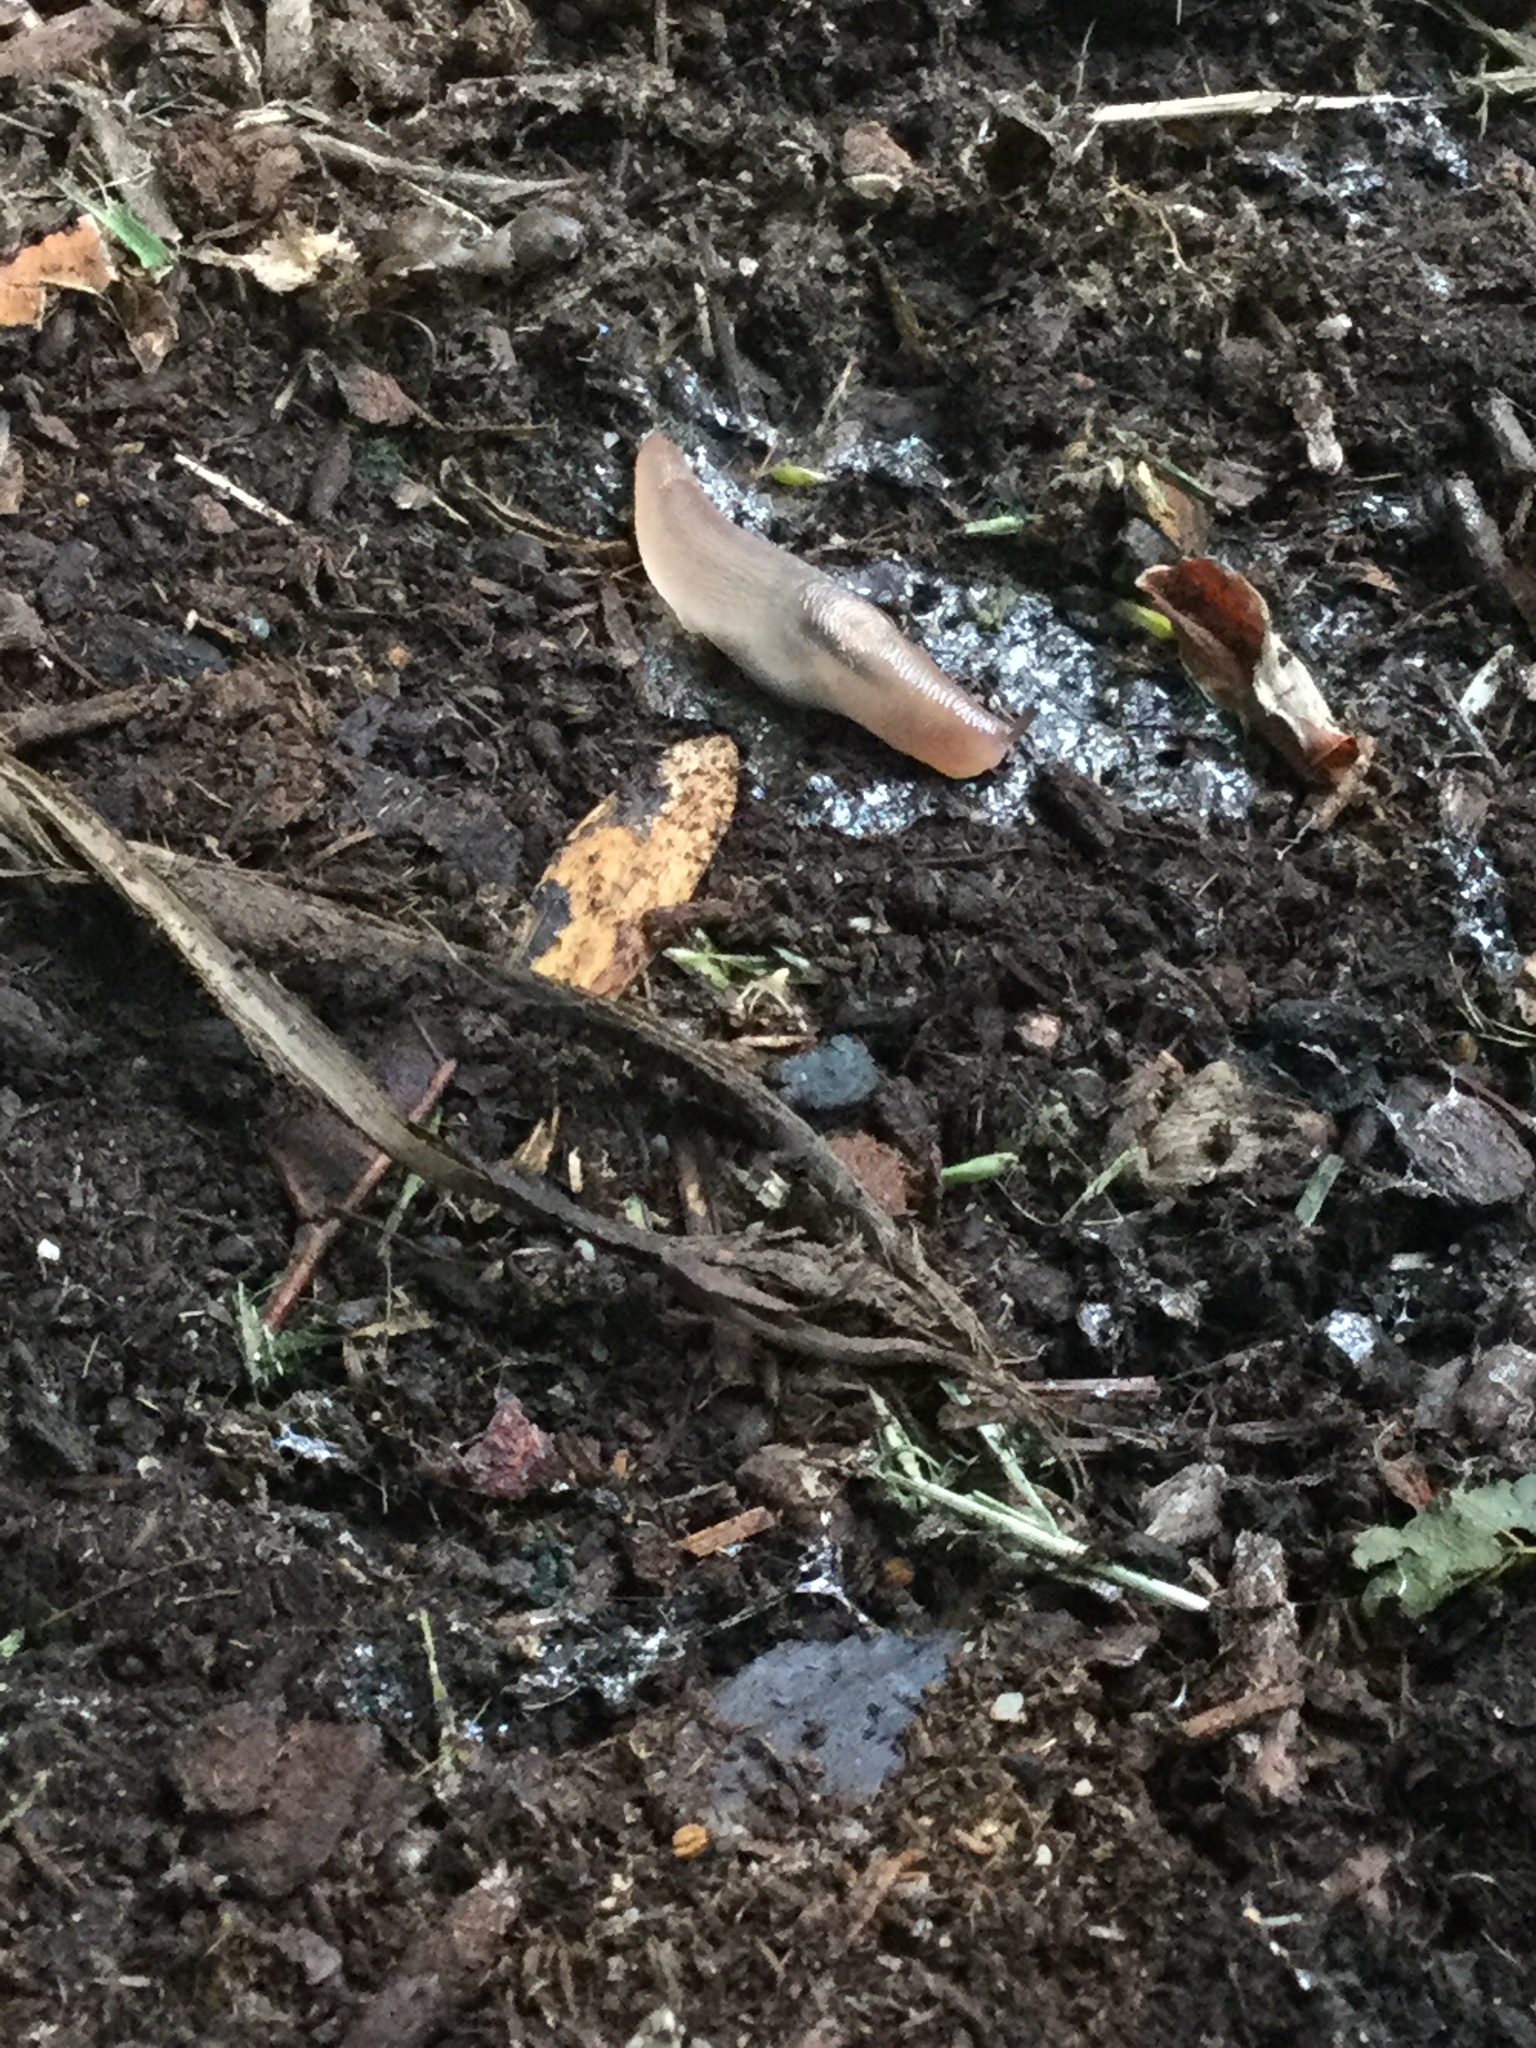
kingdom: Animalia
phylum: Mollusca
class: Gastropoda
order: Stylommatophora
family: Limacidae
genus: Ambigolimax
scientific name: Ambigolimax
